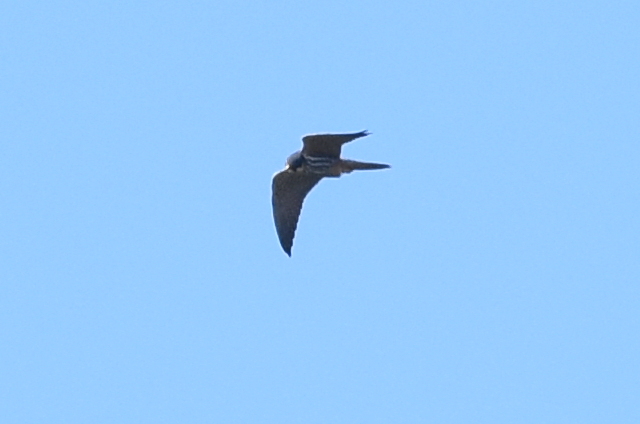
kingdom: Animalia
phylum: Chordata
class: Aves
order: Falconiformes
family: Falconidae
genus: Falco
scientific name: Falco subbuteo
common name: Eurasian hobby
